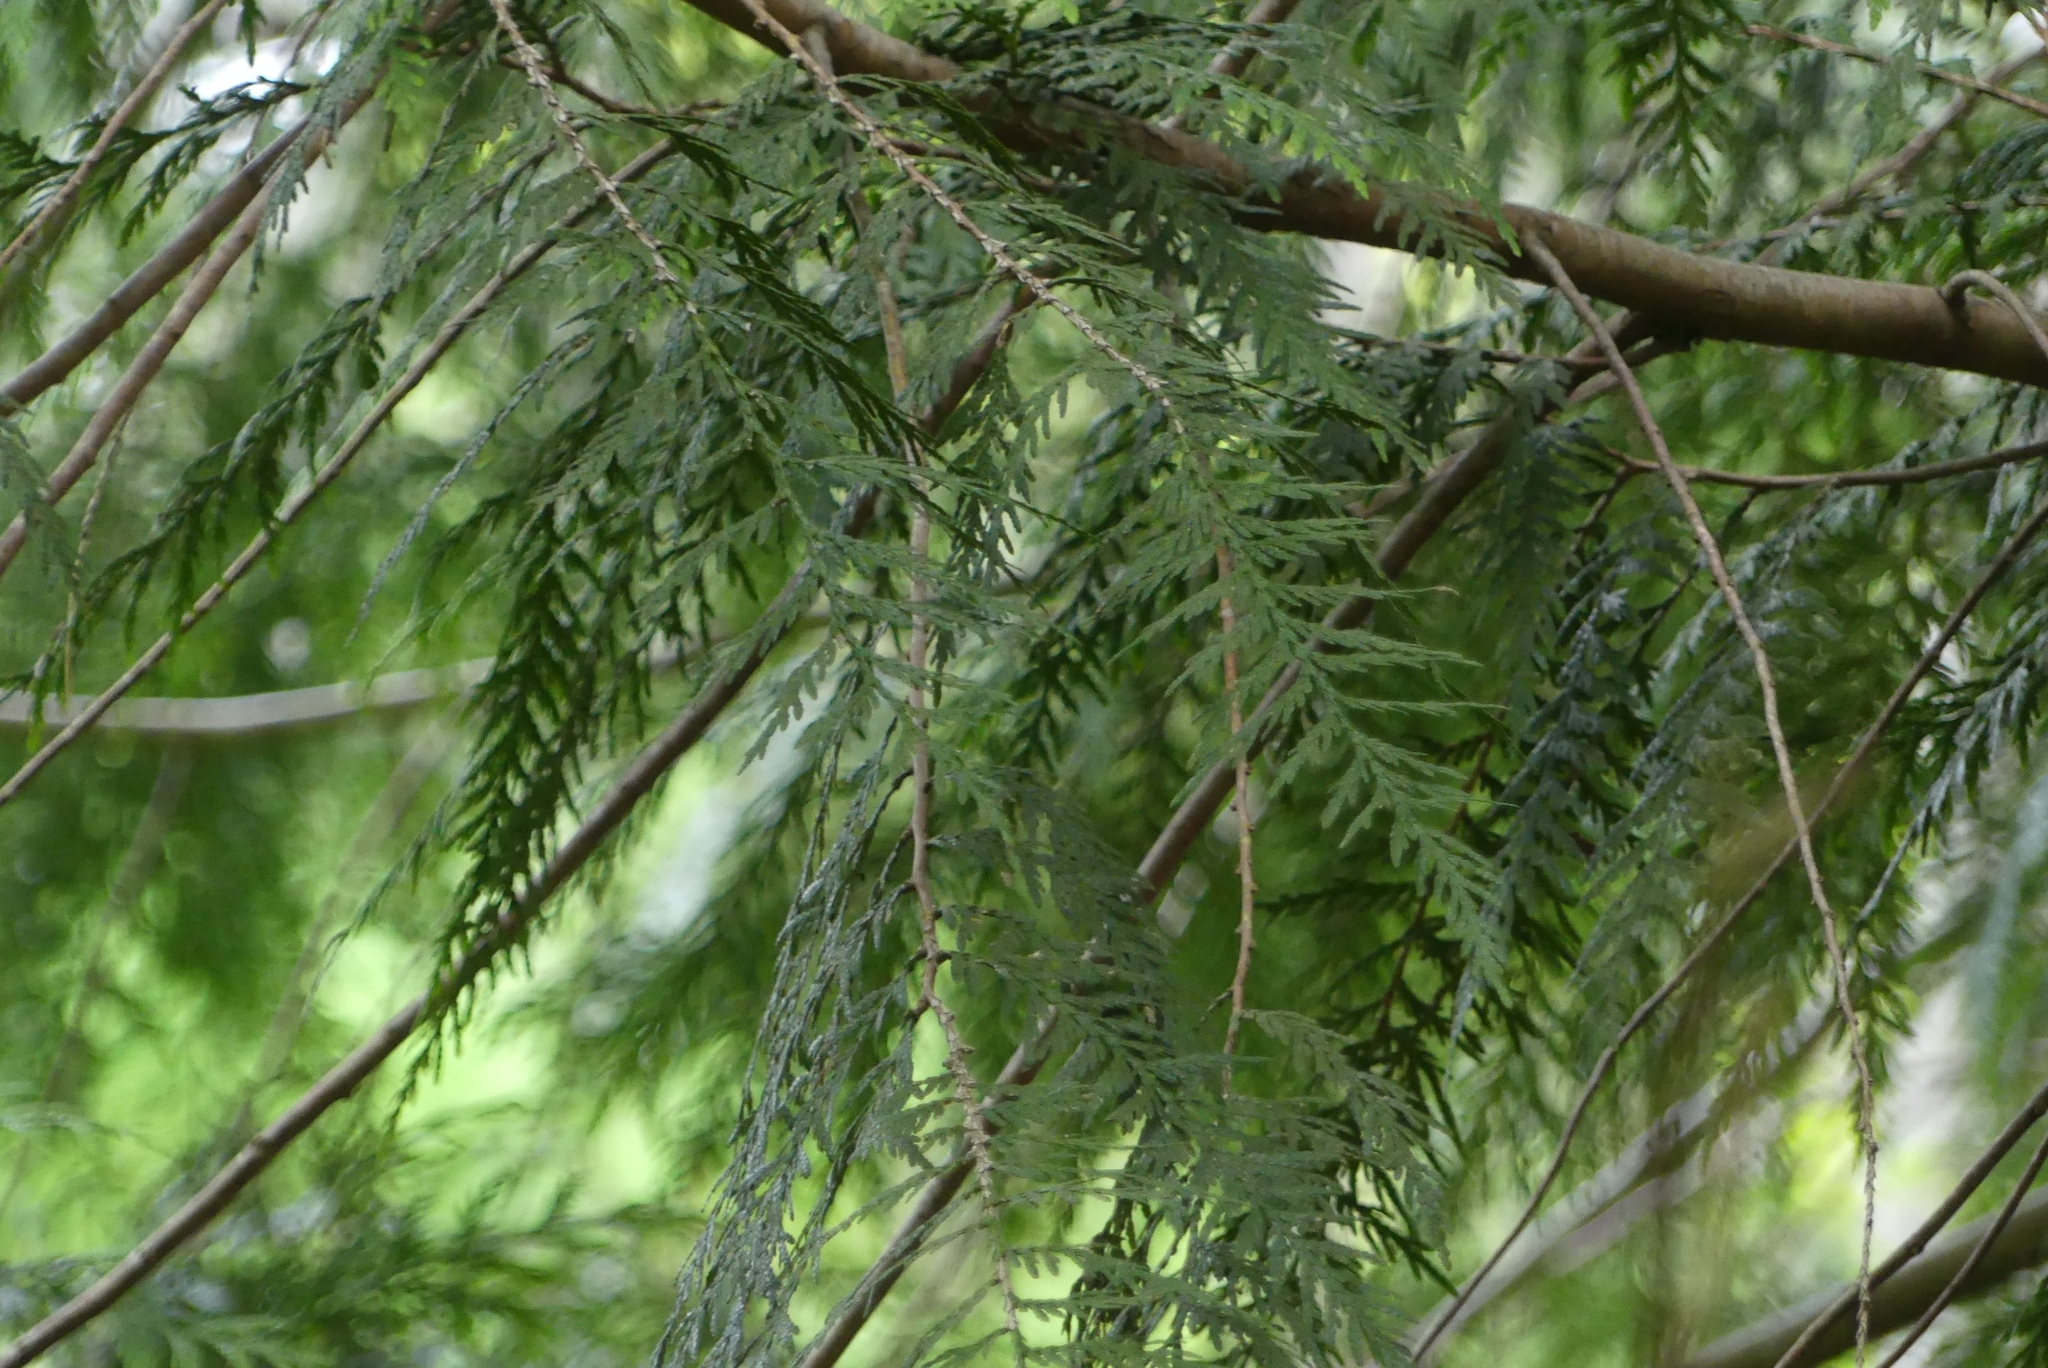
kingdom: Plantae
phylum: Tracheophyta
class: Pinopsida
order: Pinales
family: Cupressaceae
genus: Thuja
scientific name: Thuja plicata
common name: Western red-cedar
